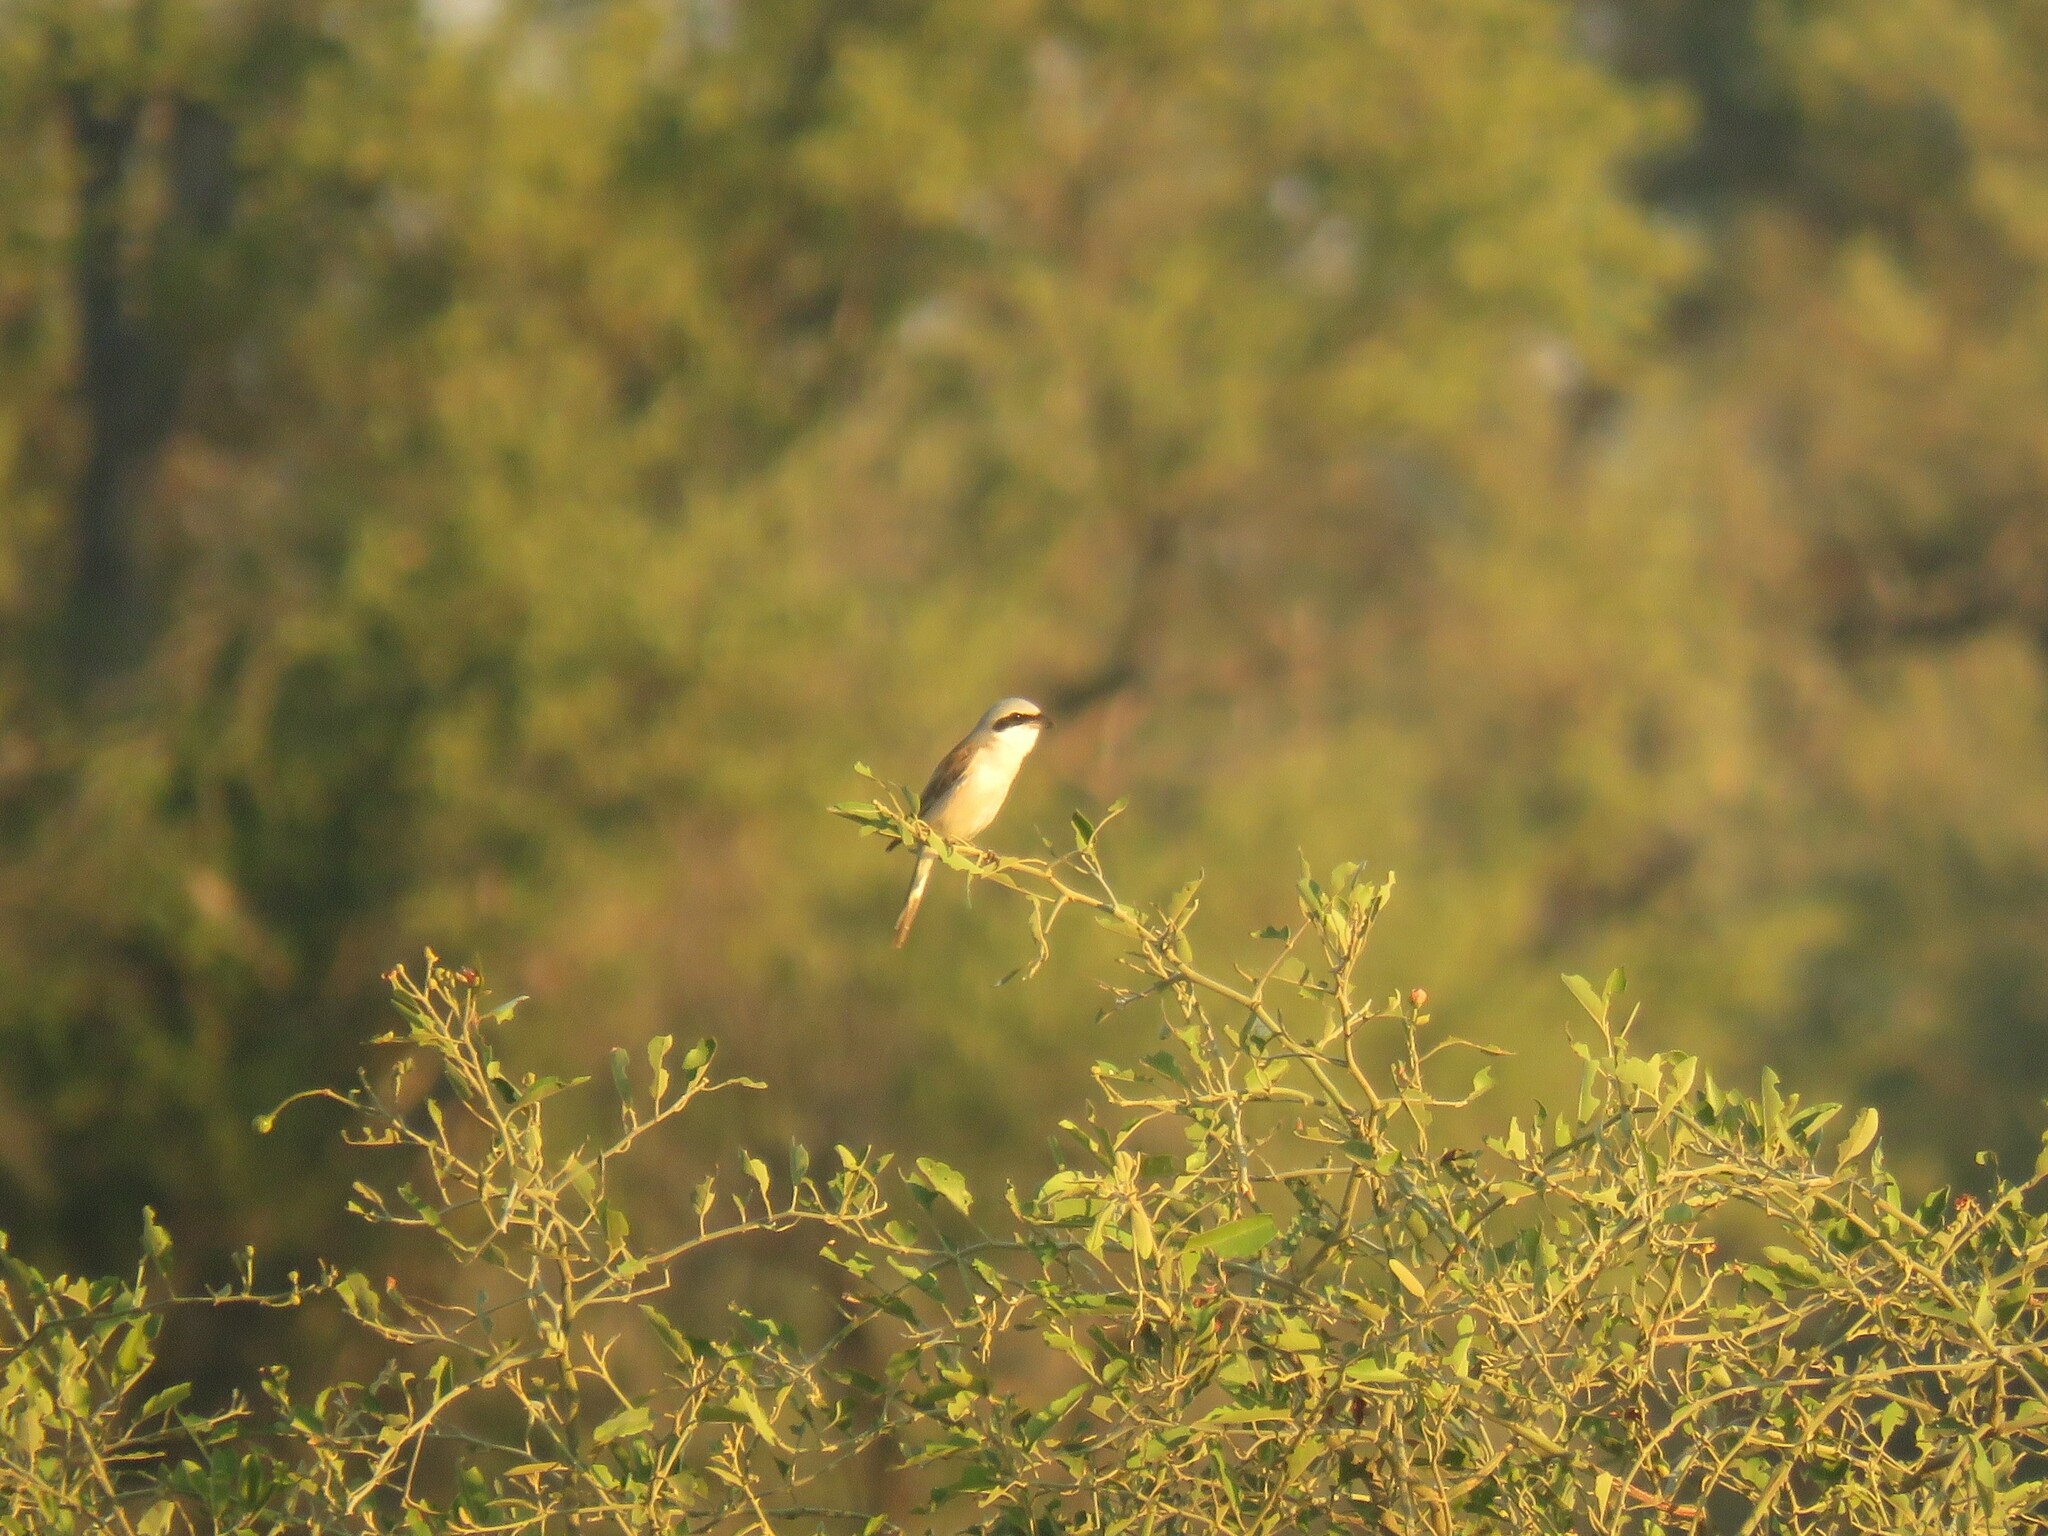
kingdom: Animalia
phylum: Chordata
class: Aves
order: Passeriformes
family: Laniidae
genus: Lanius
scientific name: Lanius collurio
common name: Red-backed shrike
